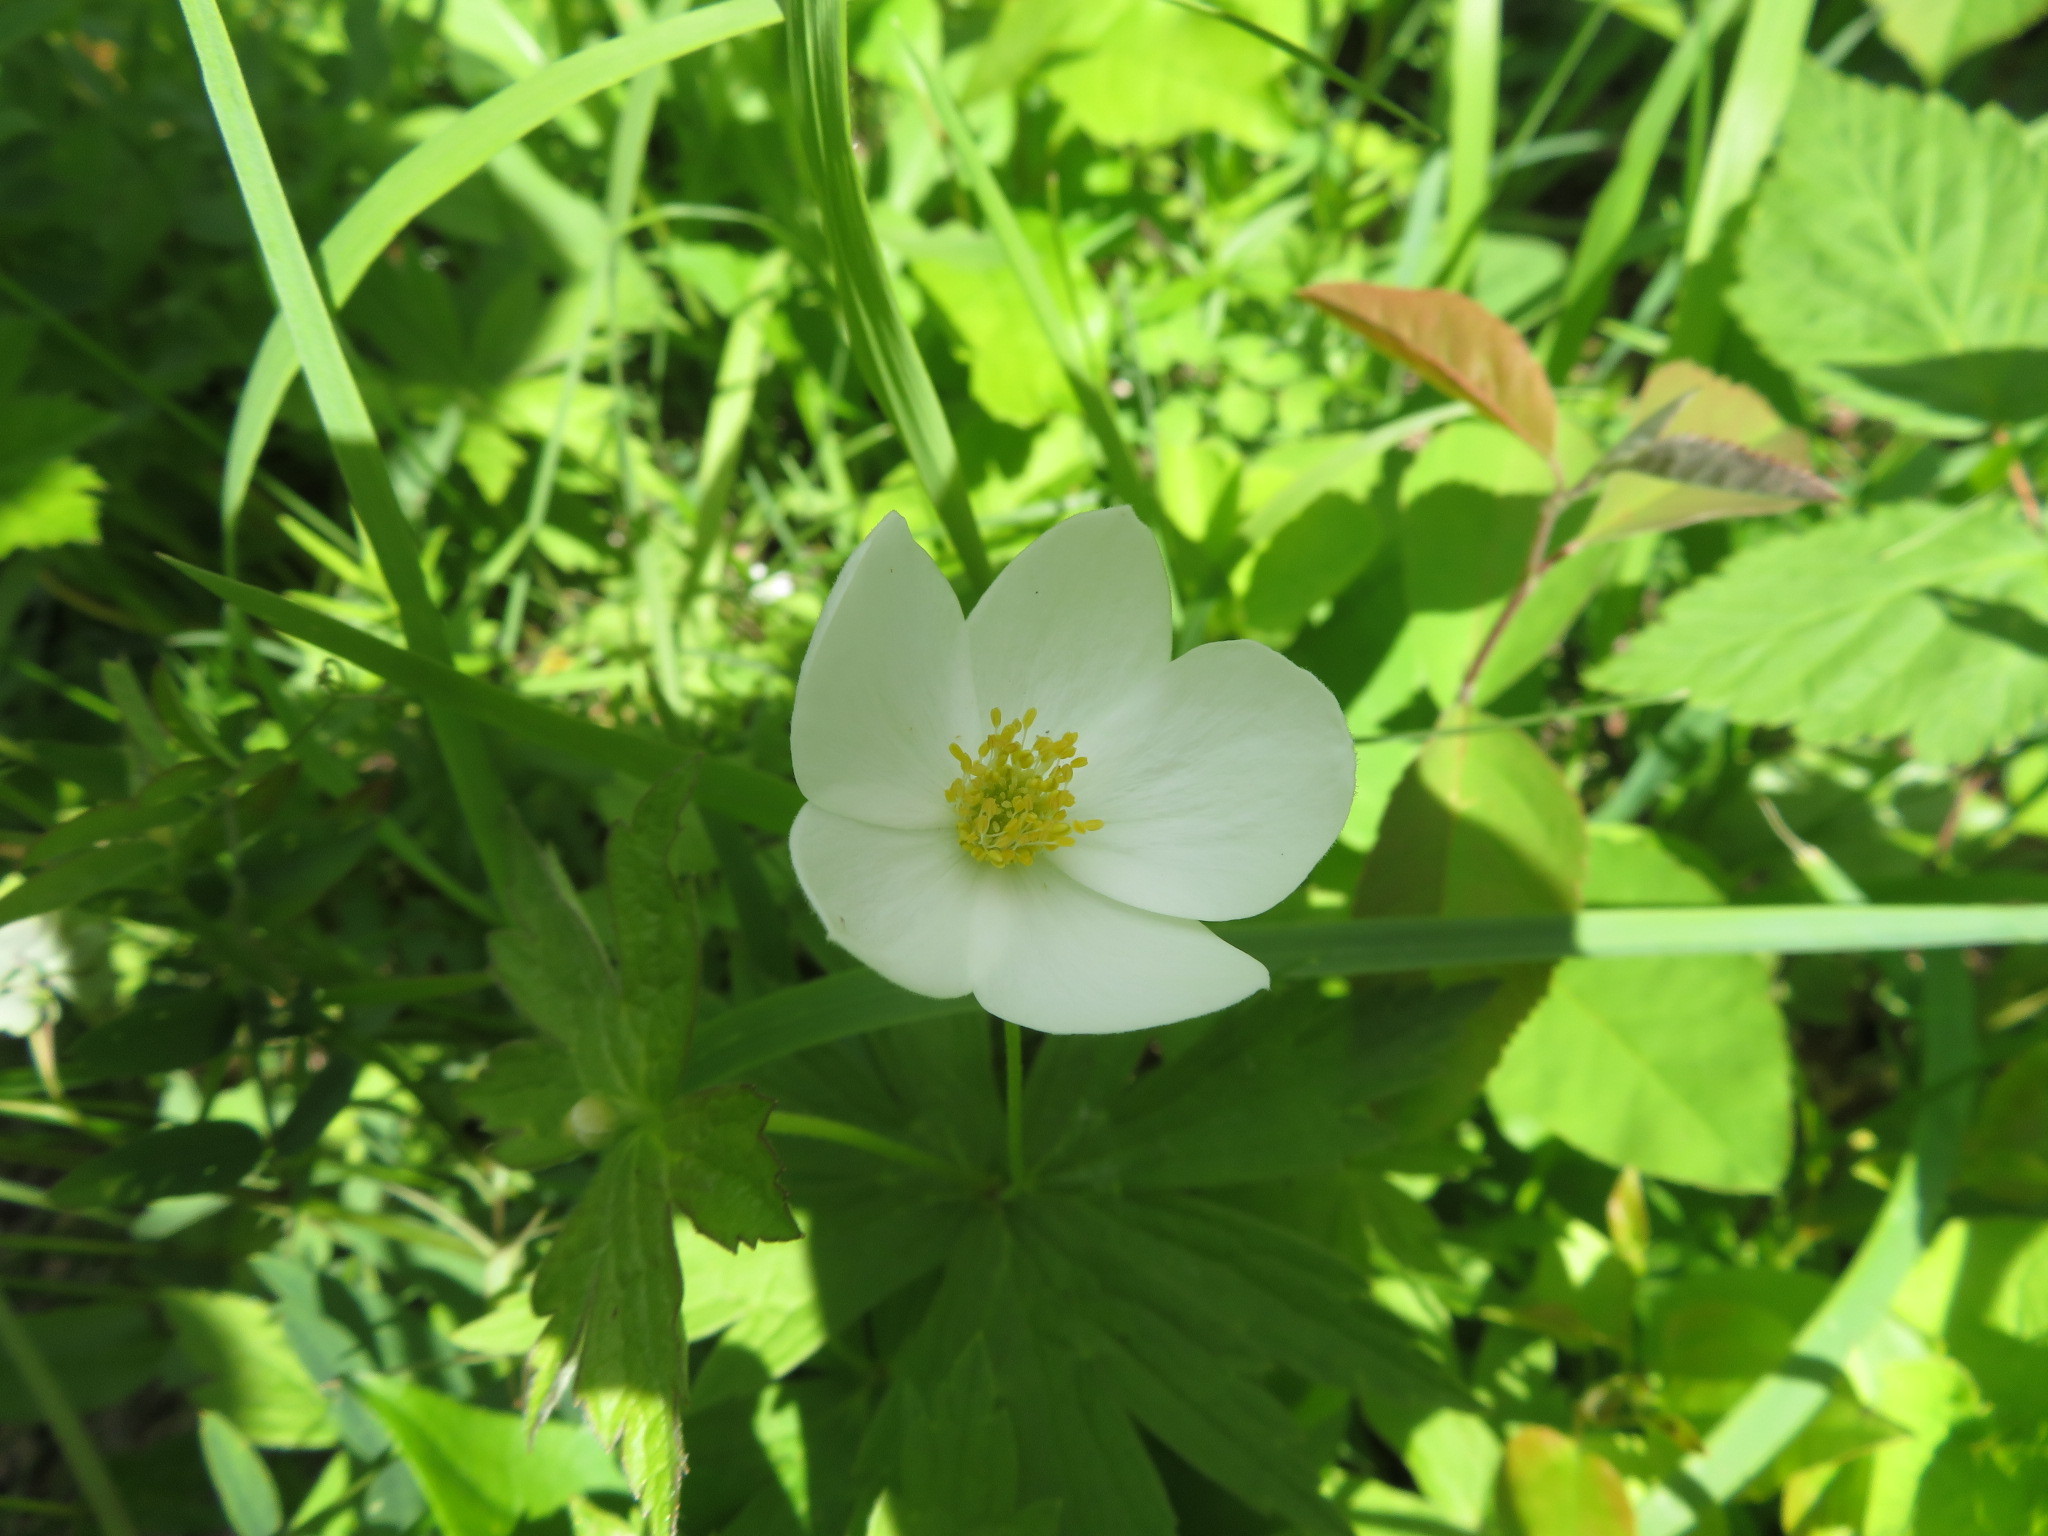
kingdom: Plantae
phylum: Tracheophyta
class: Magnoliopsida
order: Ranunculales
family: Ranunculaceae
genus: Anemonastrum
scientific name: Anemonastrum canadense
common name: Canada anemone
